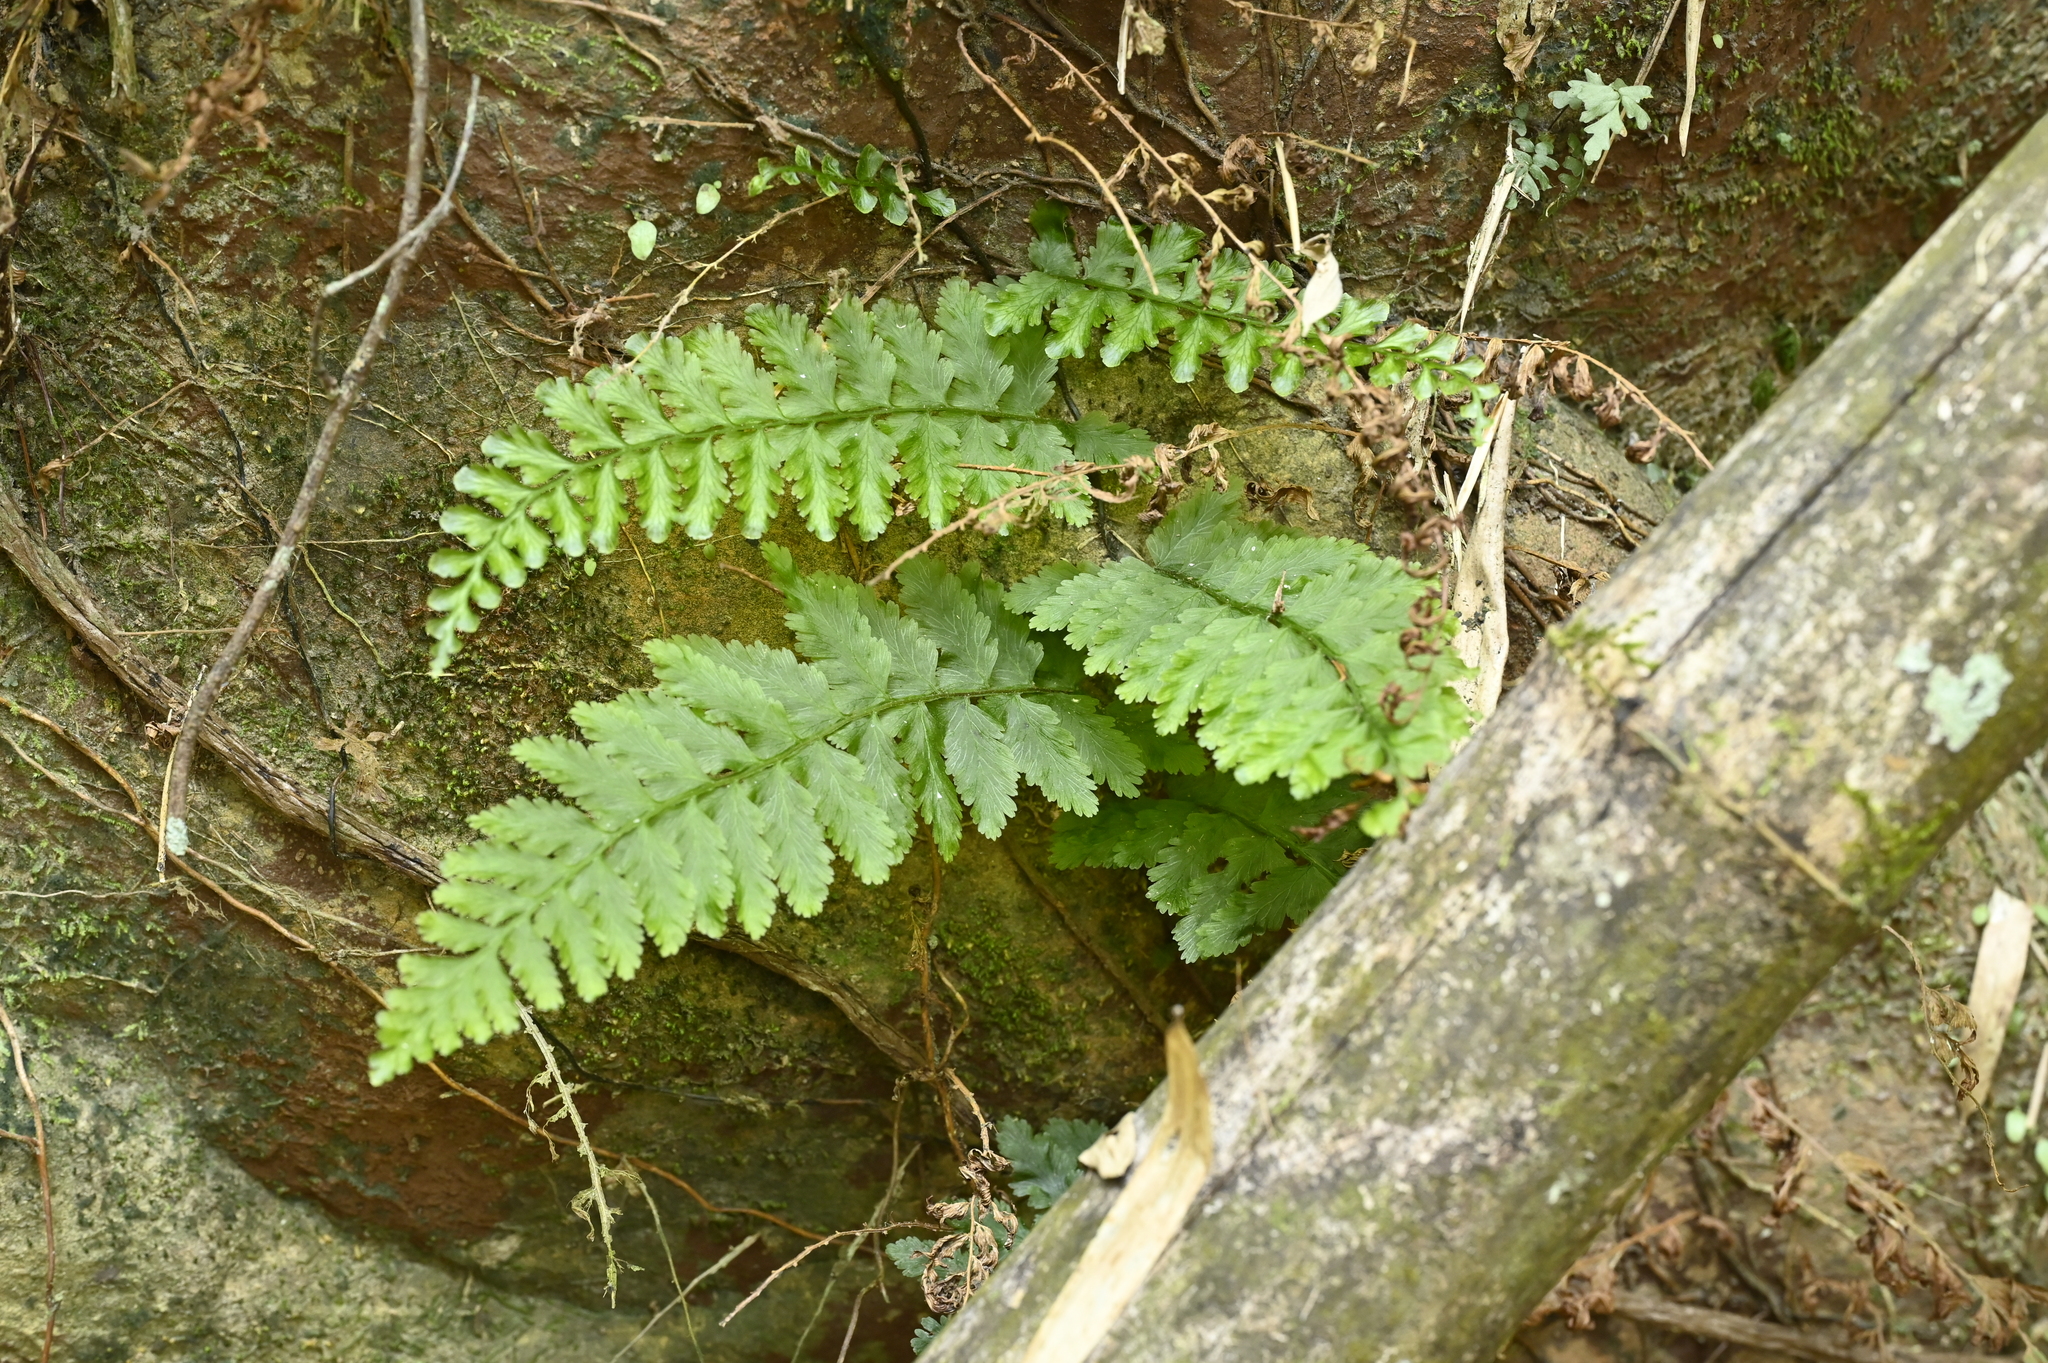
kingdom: Plantae
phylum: Tracheophyta
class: Polypodiopsida
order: Hymenophyllales
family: Hymenophyllaceae
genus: Vandenboschia
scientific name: Vandenboschia auriculata
